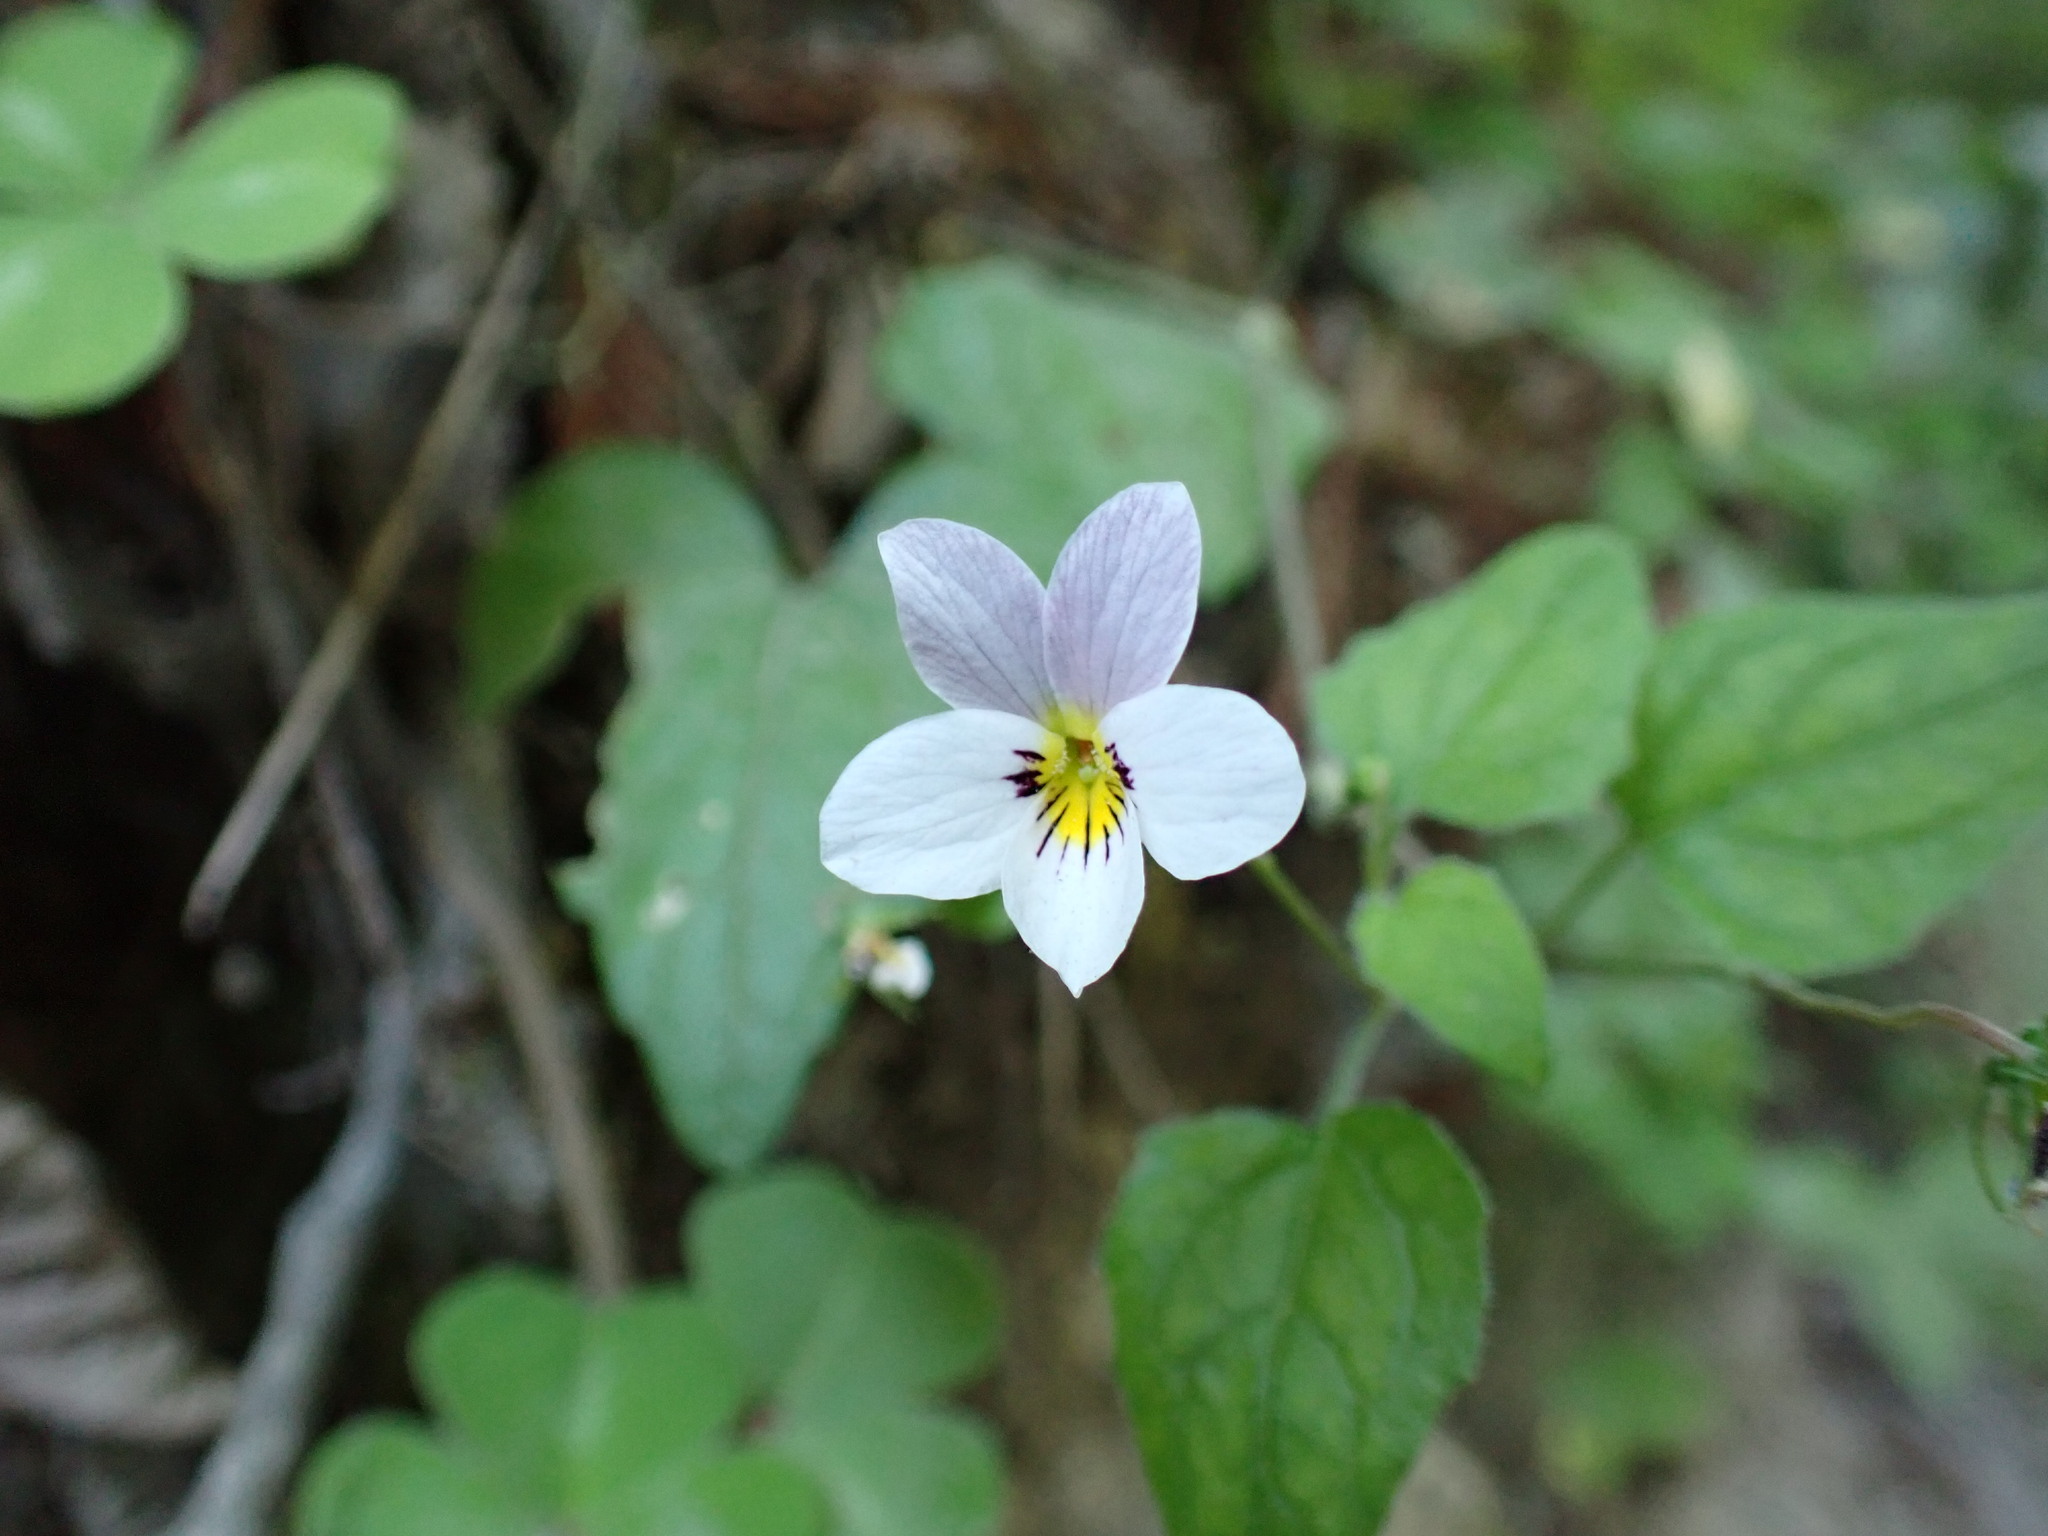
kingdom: Plantae
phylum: Tracheophyta
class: Magnoliopsida
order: Malpighiales
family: Violaceae
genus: Viola
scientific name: Viola ocellata
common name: Western heart's ease
